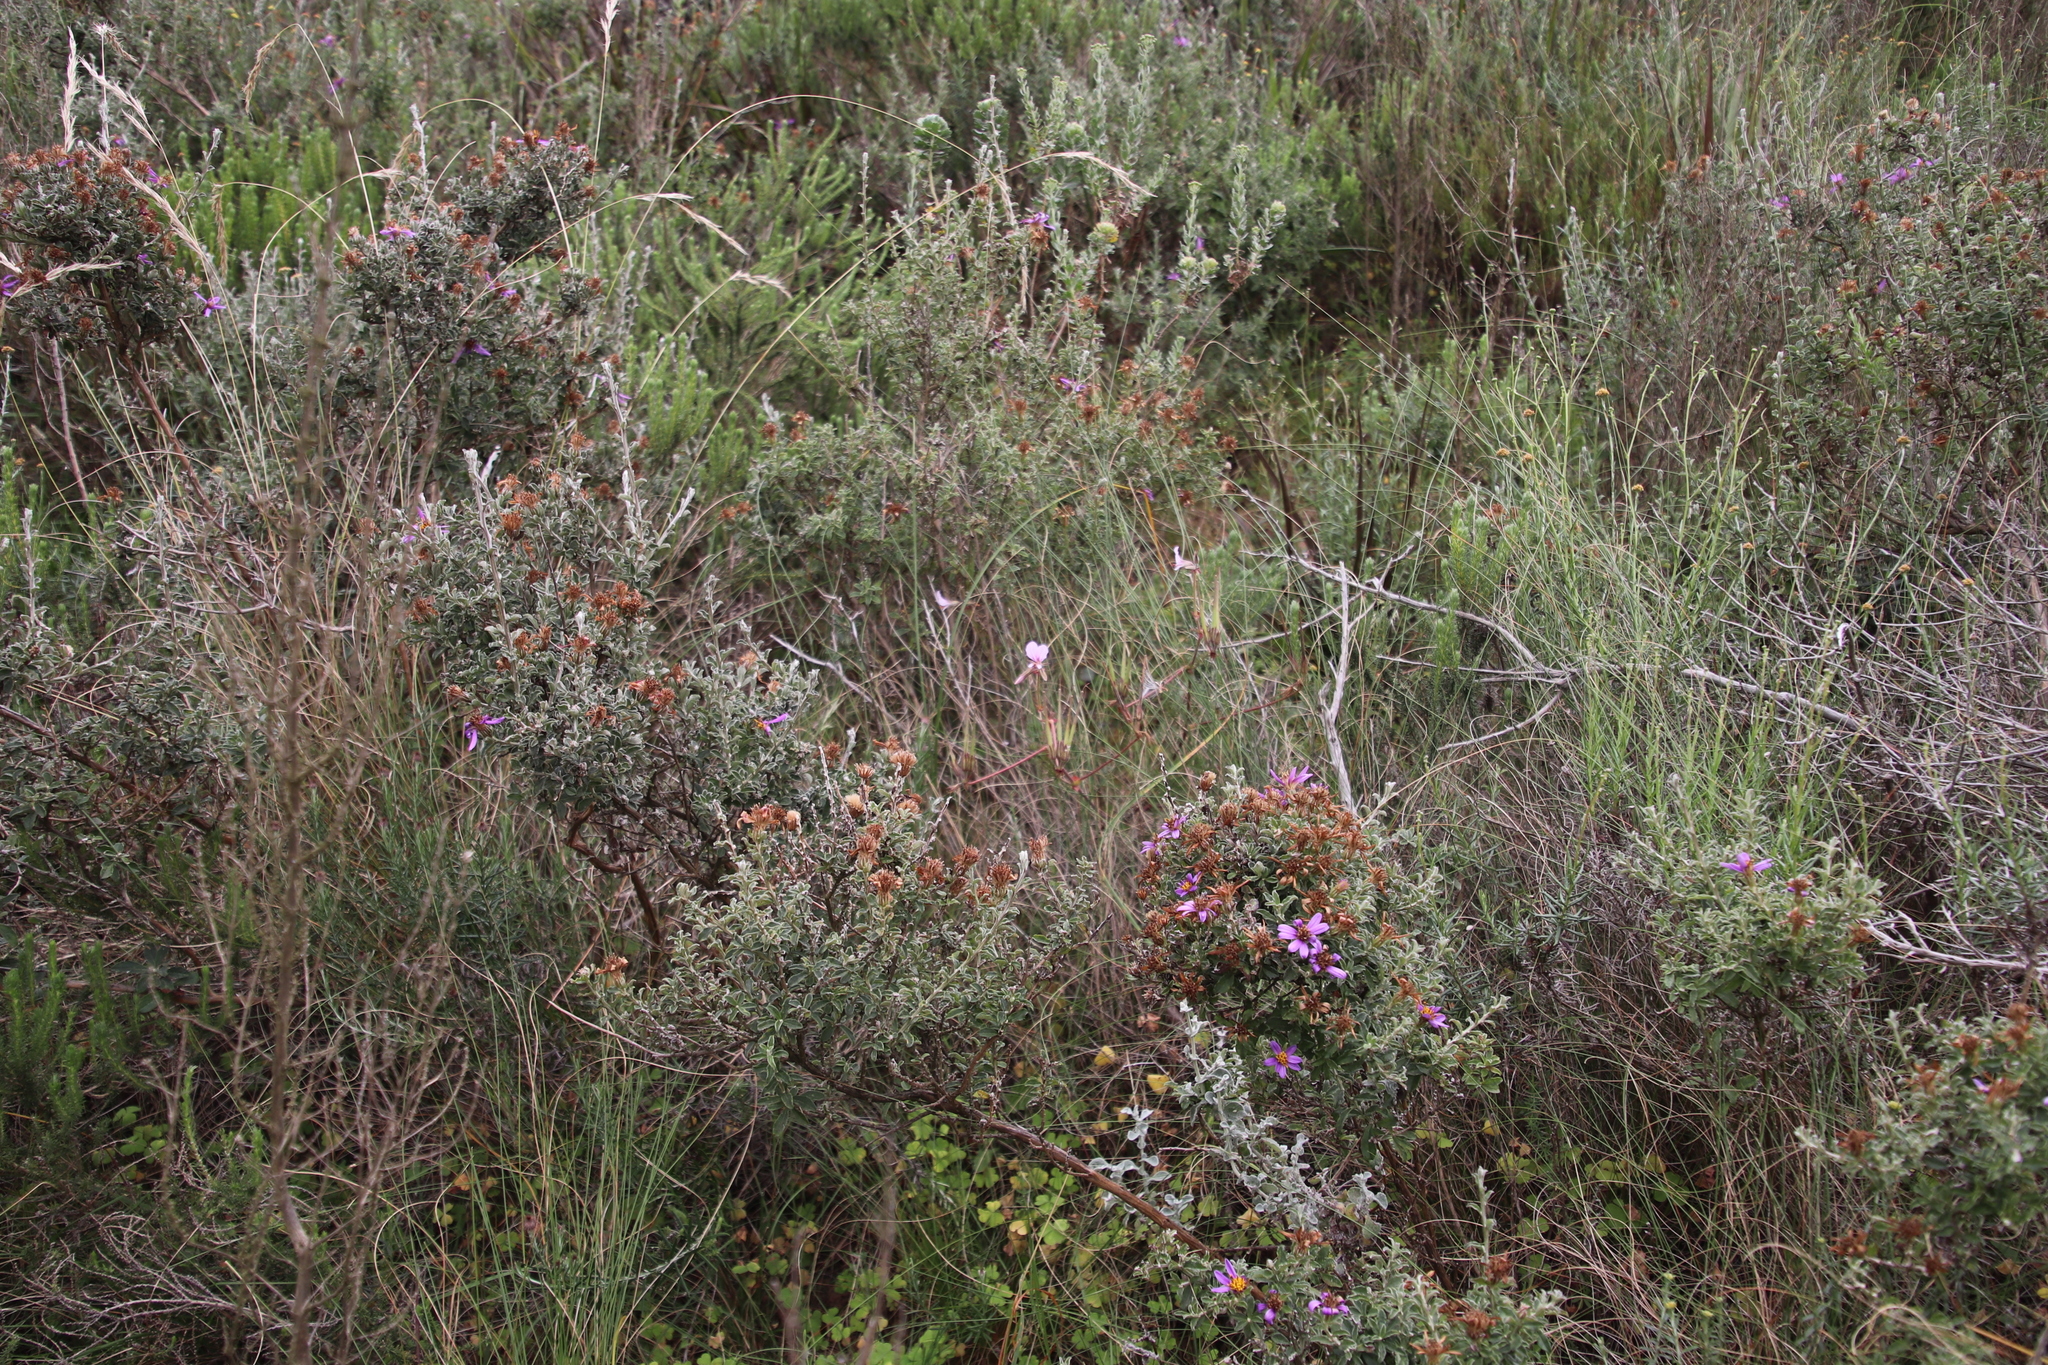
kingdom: Plantae
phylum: Tracheophyta
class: Magnoliopsida
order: Asterales
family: Asteraceae
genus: Printzia
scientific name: Printzia polifolia
